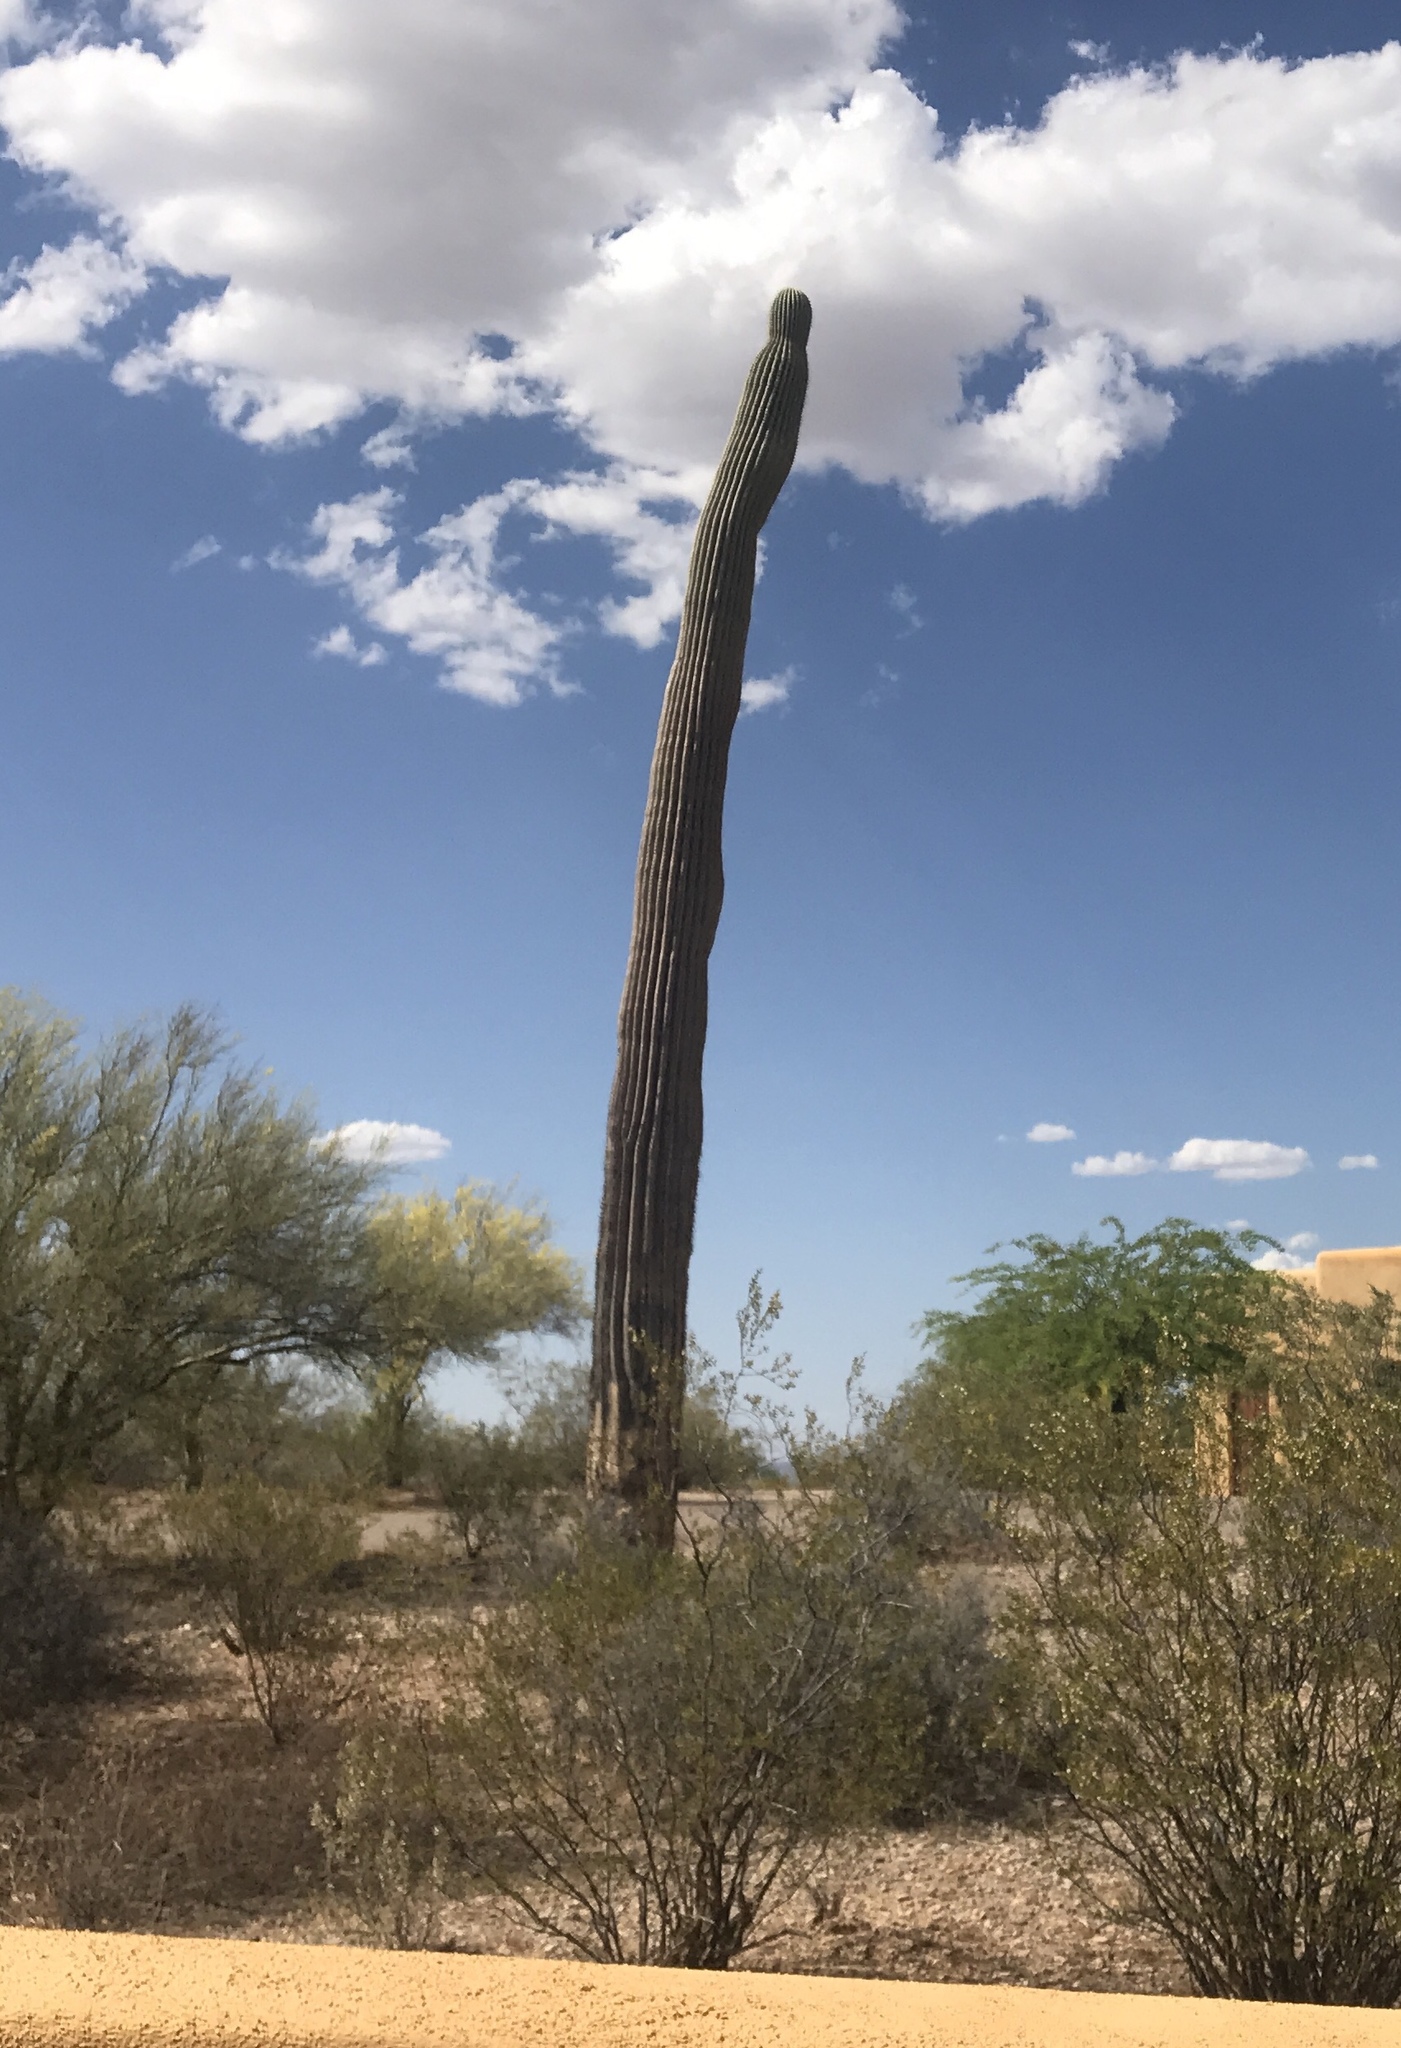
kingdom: Plantae
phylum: Tracheophyta
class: Magnoliopsida
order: Caryophyllales
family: Cactaceae
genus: Carnegiea
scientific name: Carnegiea gigantea
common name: Saguaro
